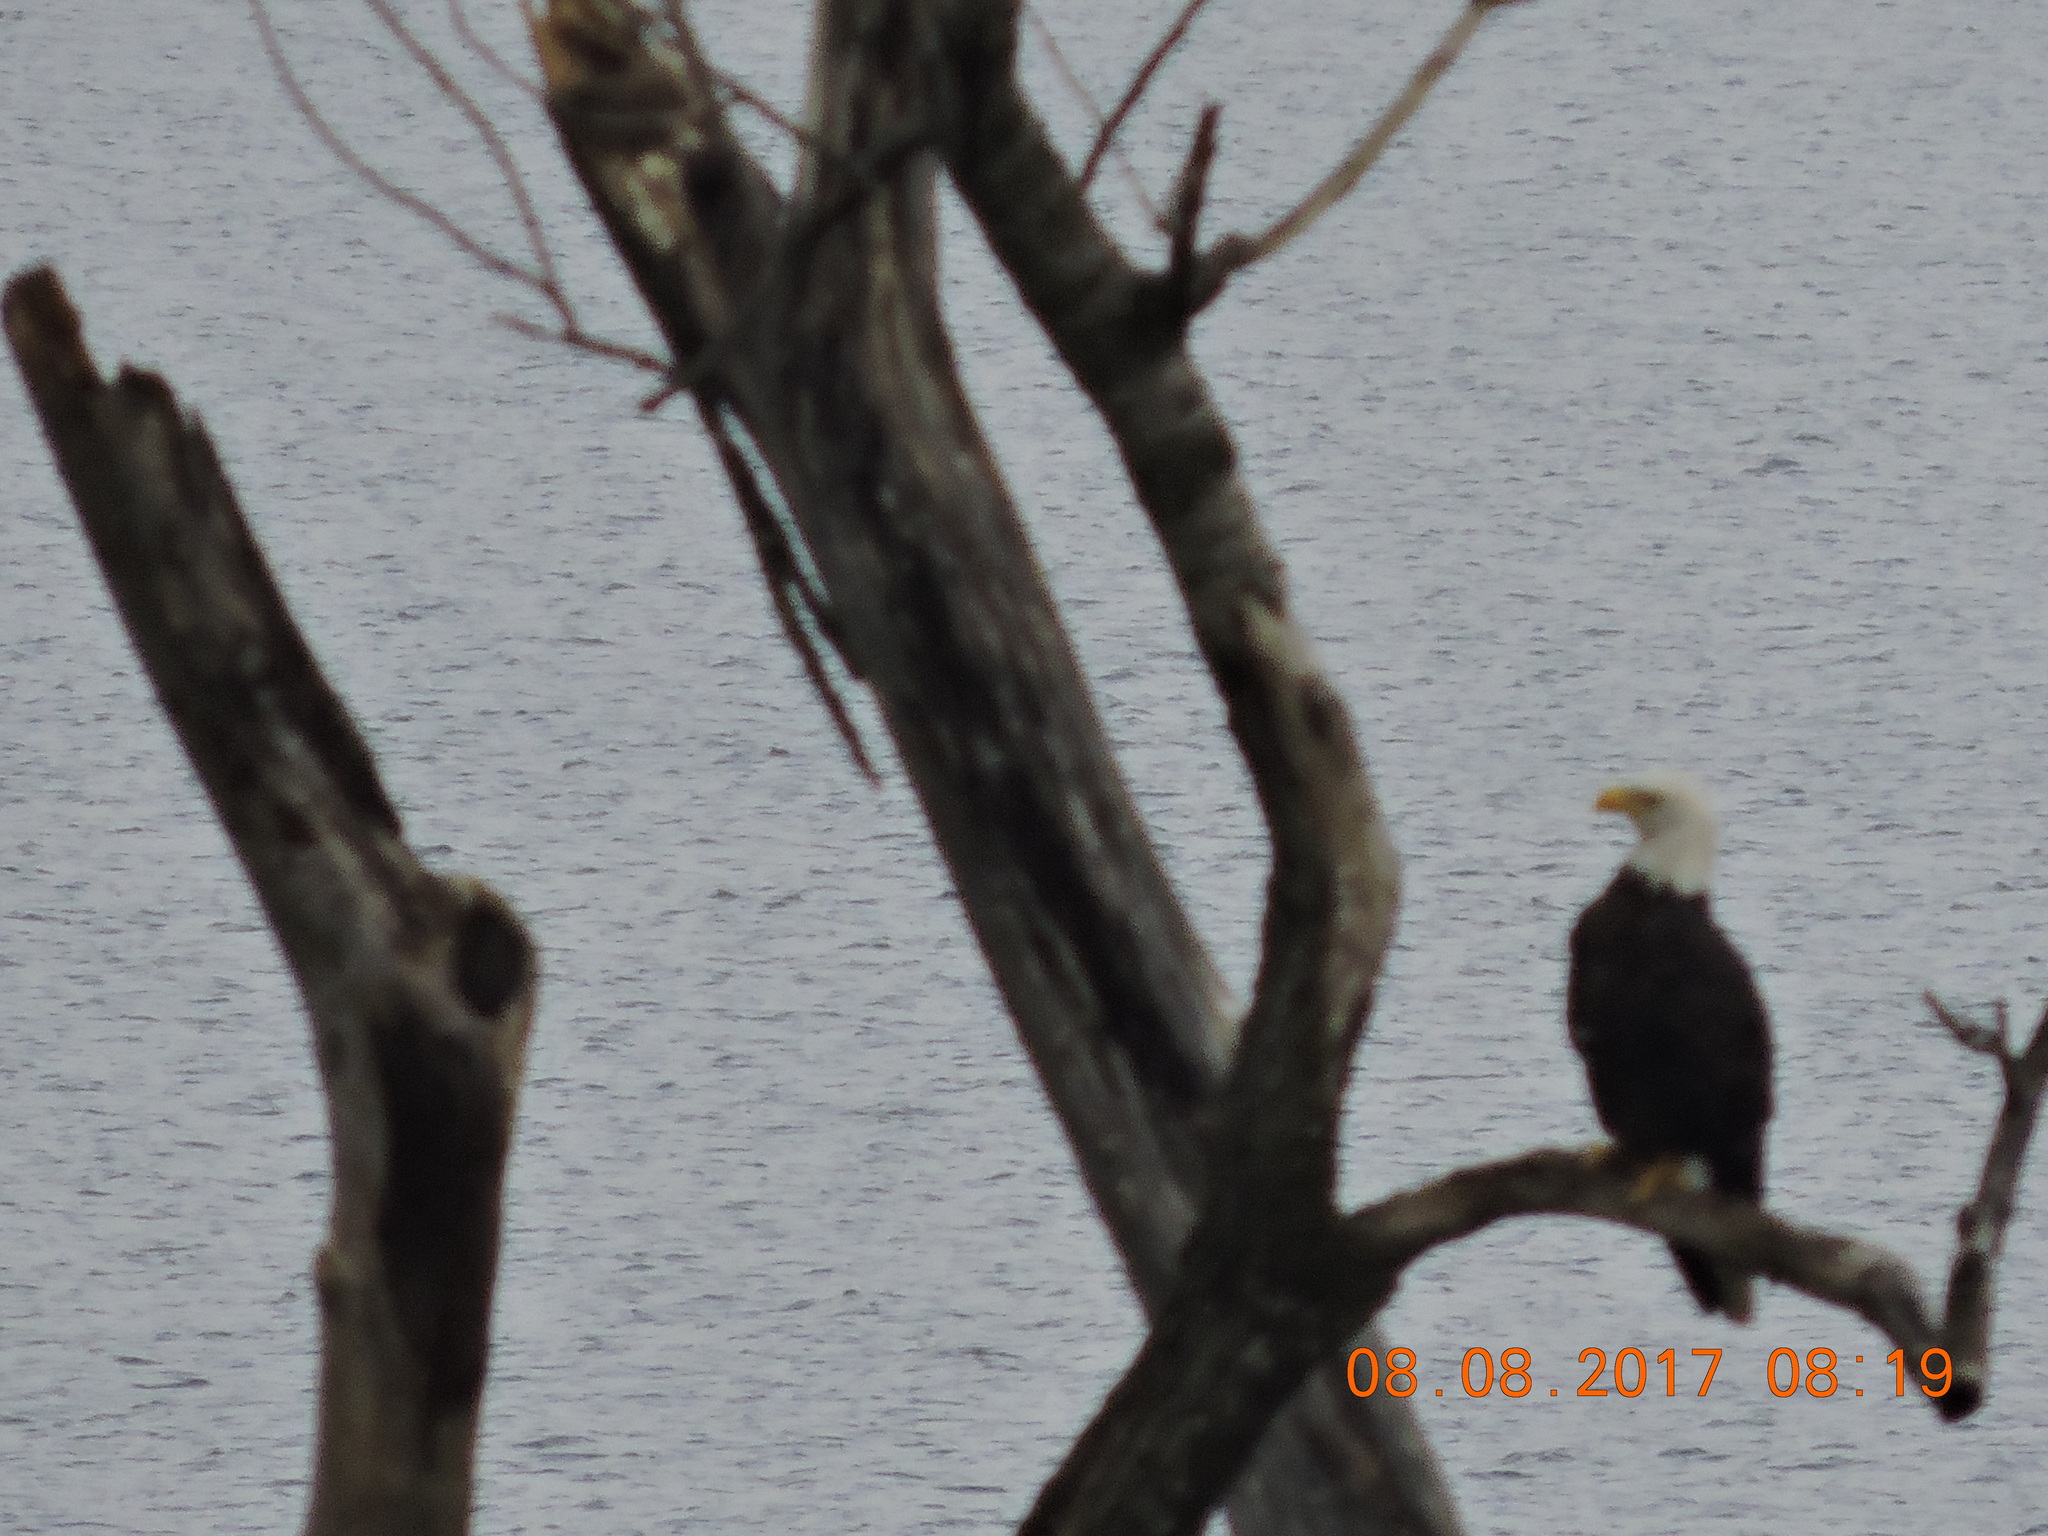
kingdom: Animalia
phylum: Chordata
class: Aves
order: Accipitriformes
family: Accipitridae
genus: Haliaeetus
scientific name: Haliaeetus leucocephalus
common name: Bald eagle
